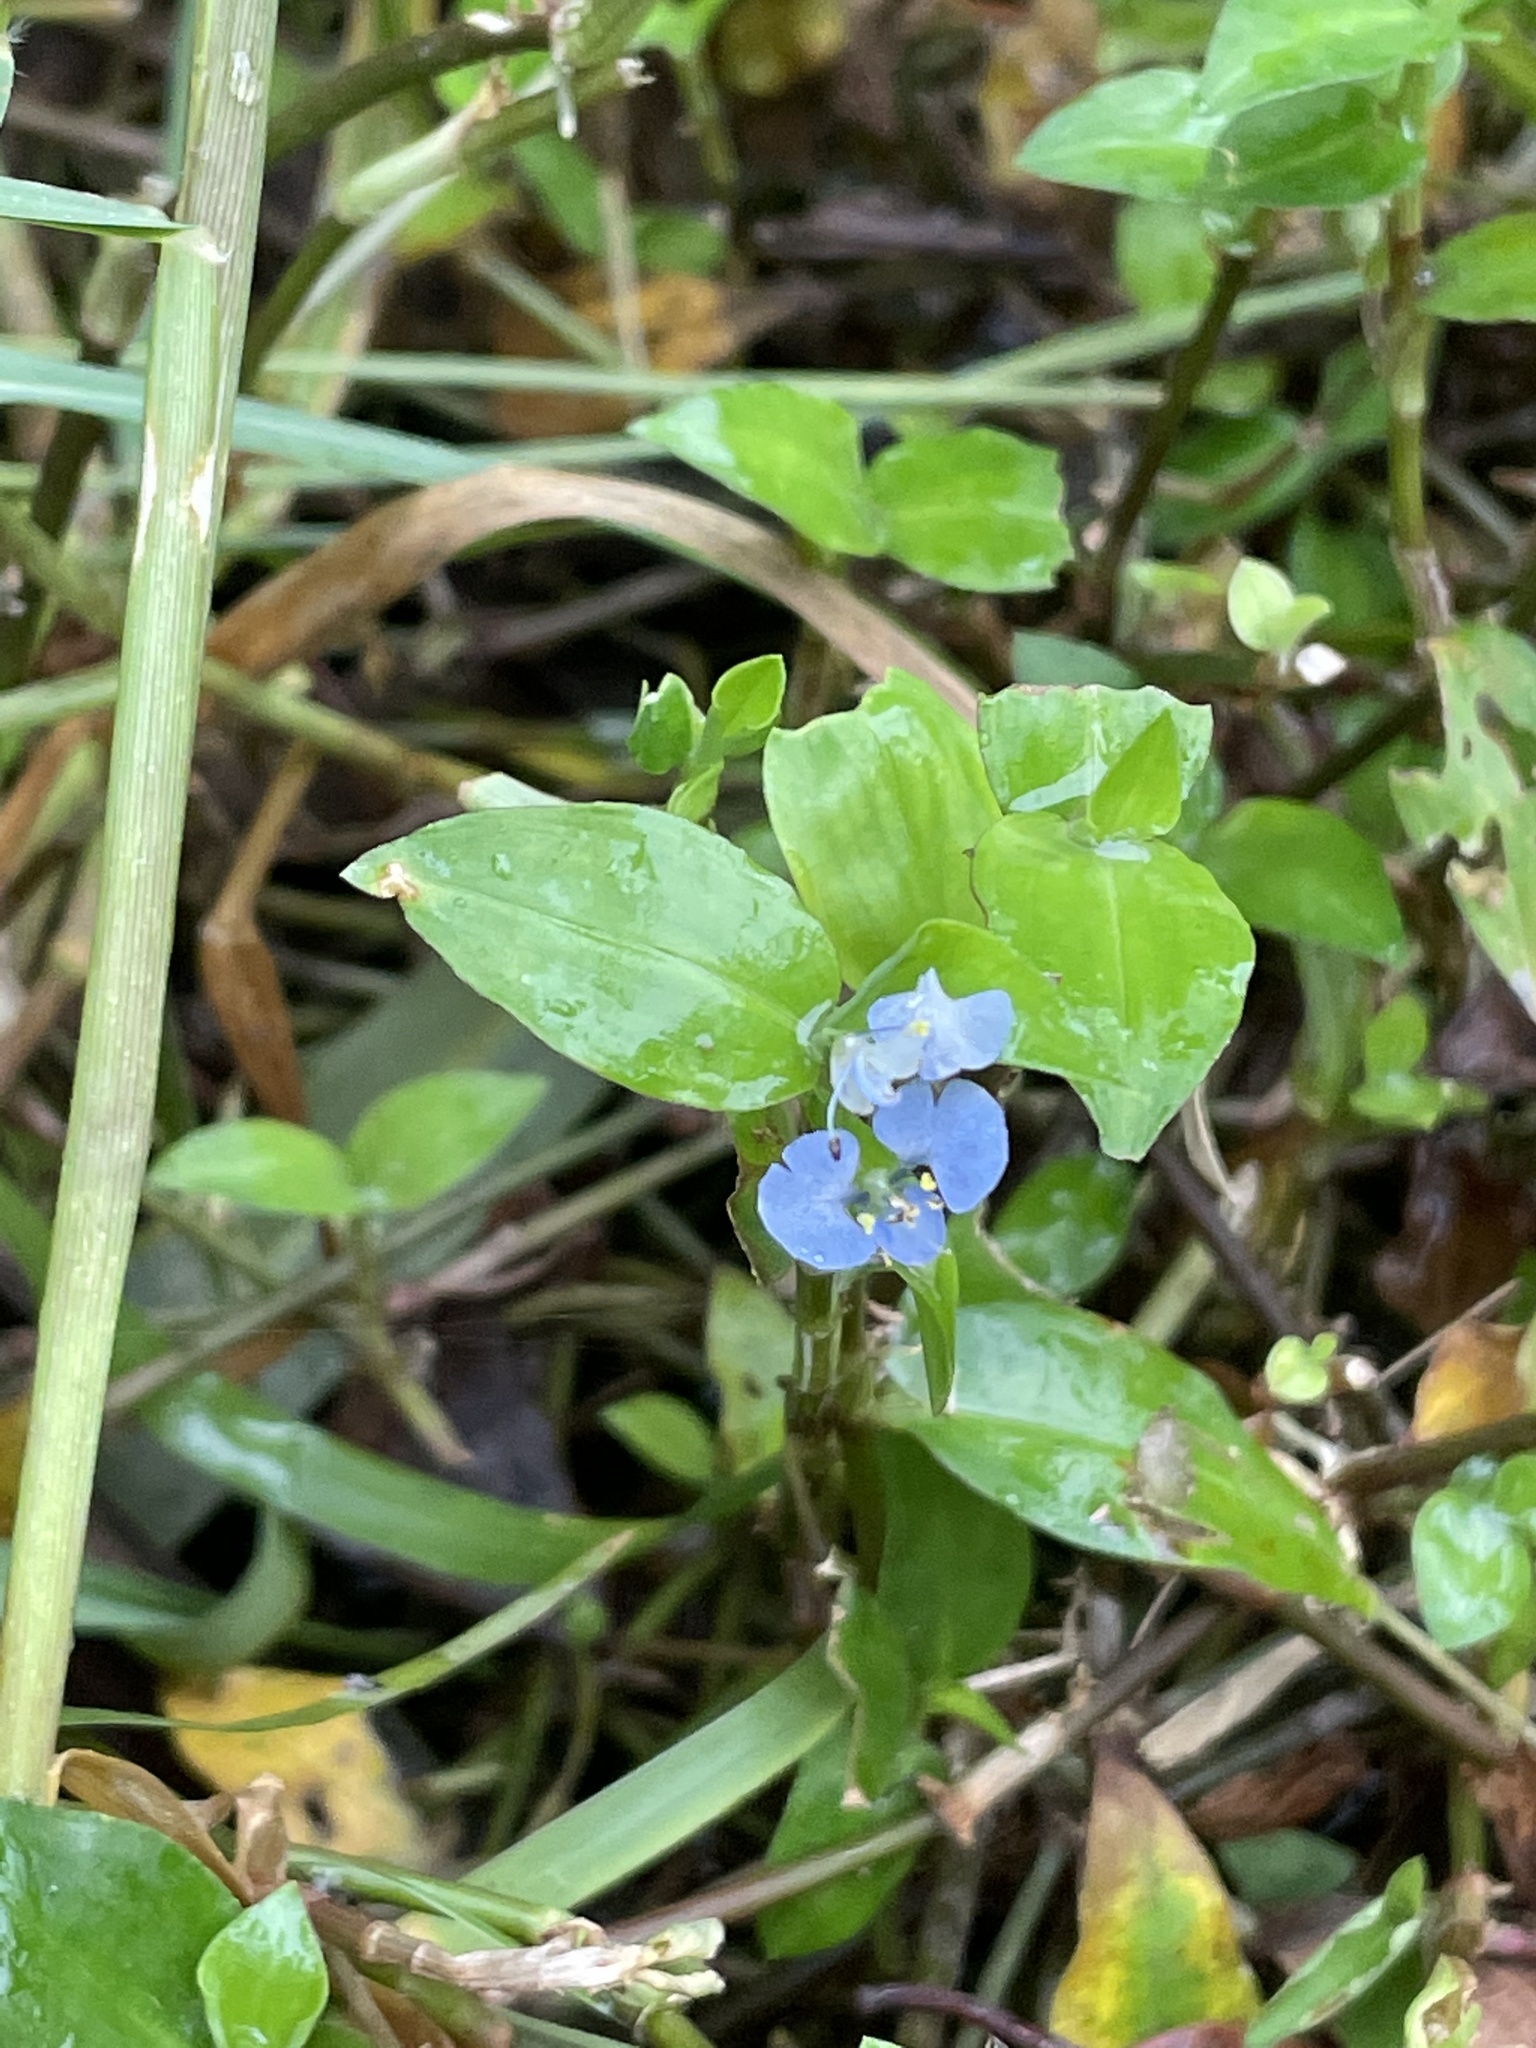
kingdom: Plantae
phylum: Tracheophyta
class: Liliopsida
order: Commelinales
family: Commelinaceae
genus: Commelina
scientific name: Commelina diffusa
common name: Climbing dayflower
